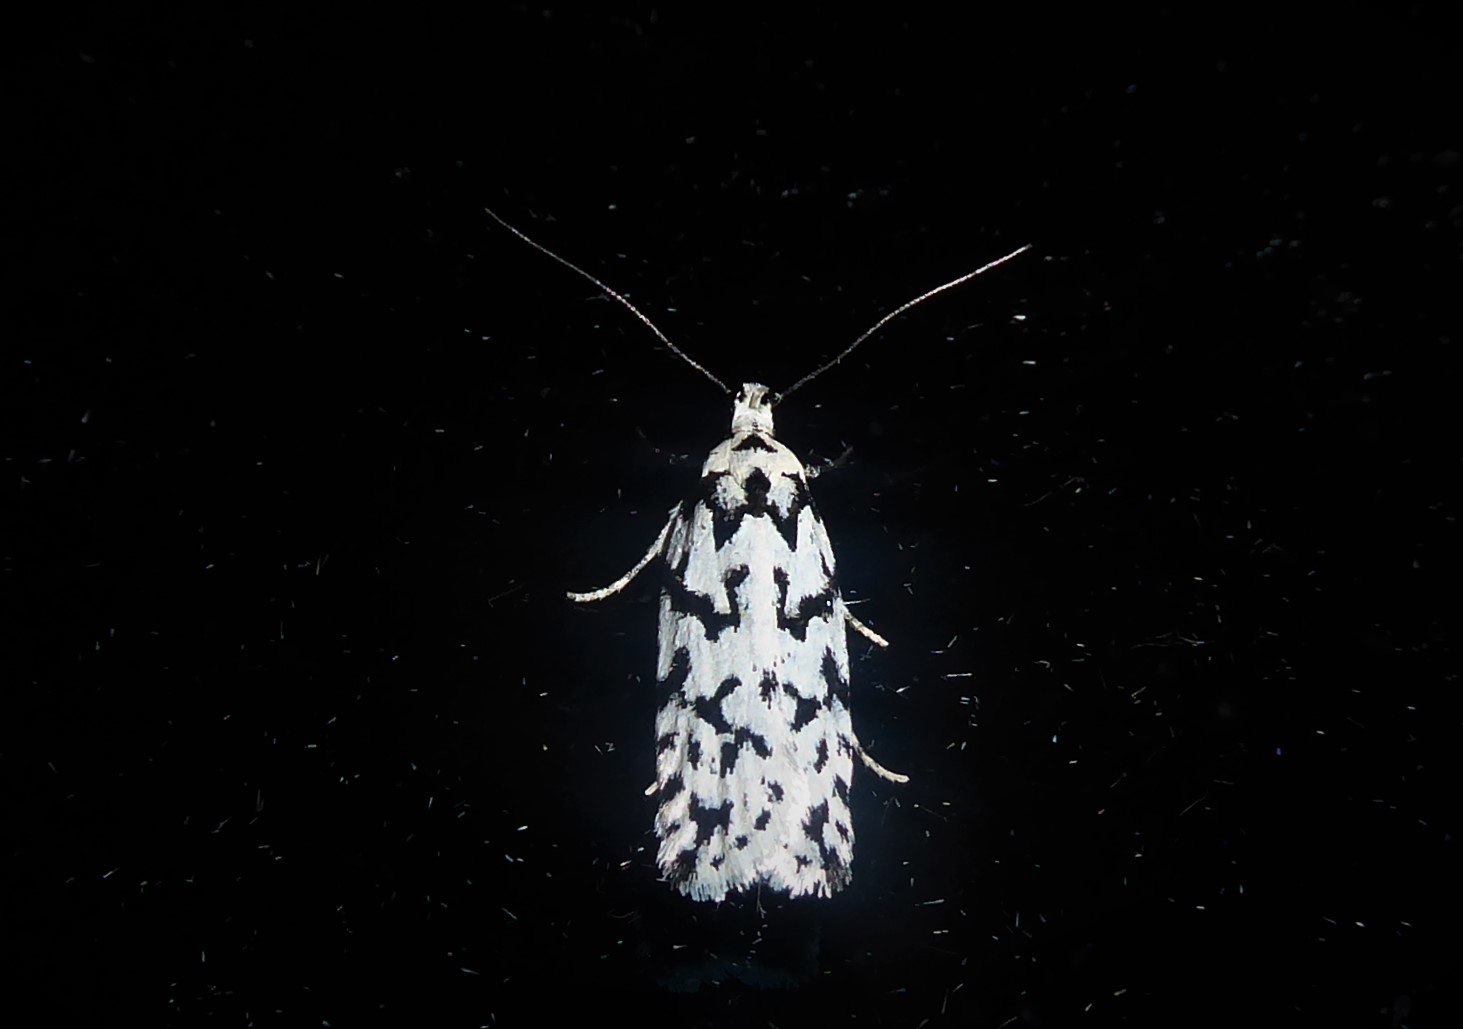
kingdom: Animalia
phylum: Arthropoda
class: Insecta
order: Lepidoptera
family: Oecophoridae
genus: Izatha
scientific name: Izatha katadiktya
